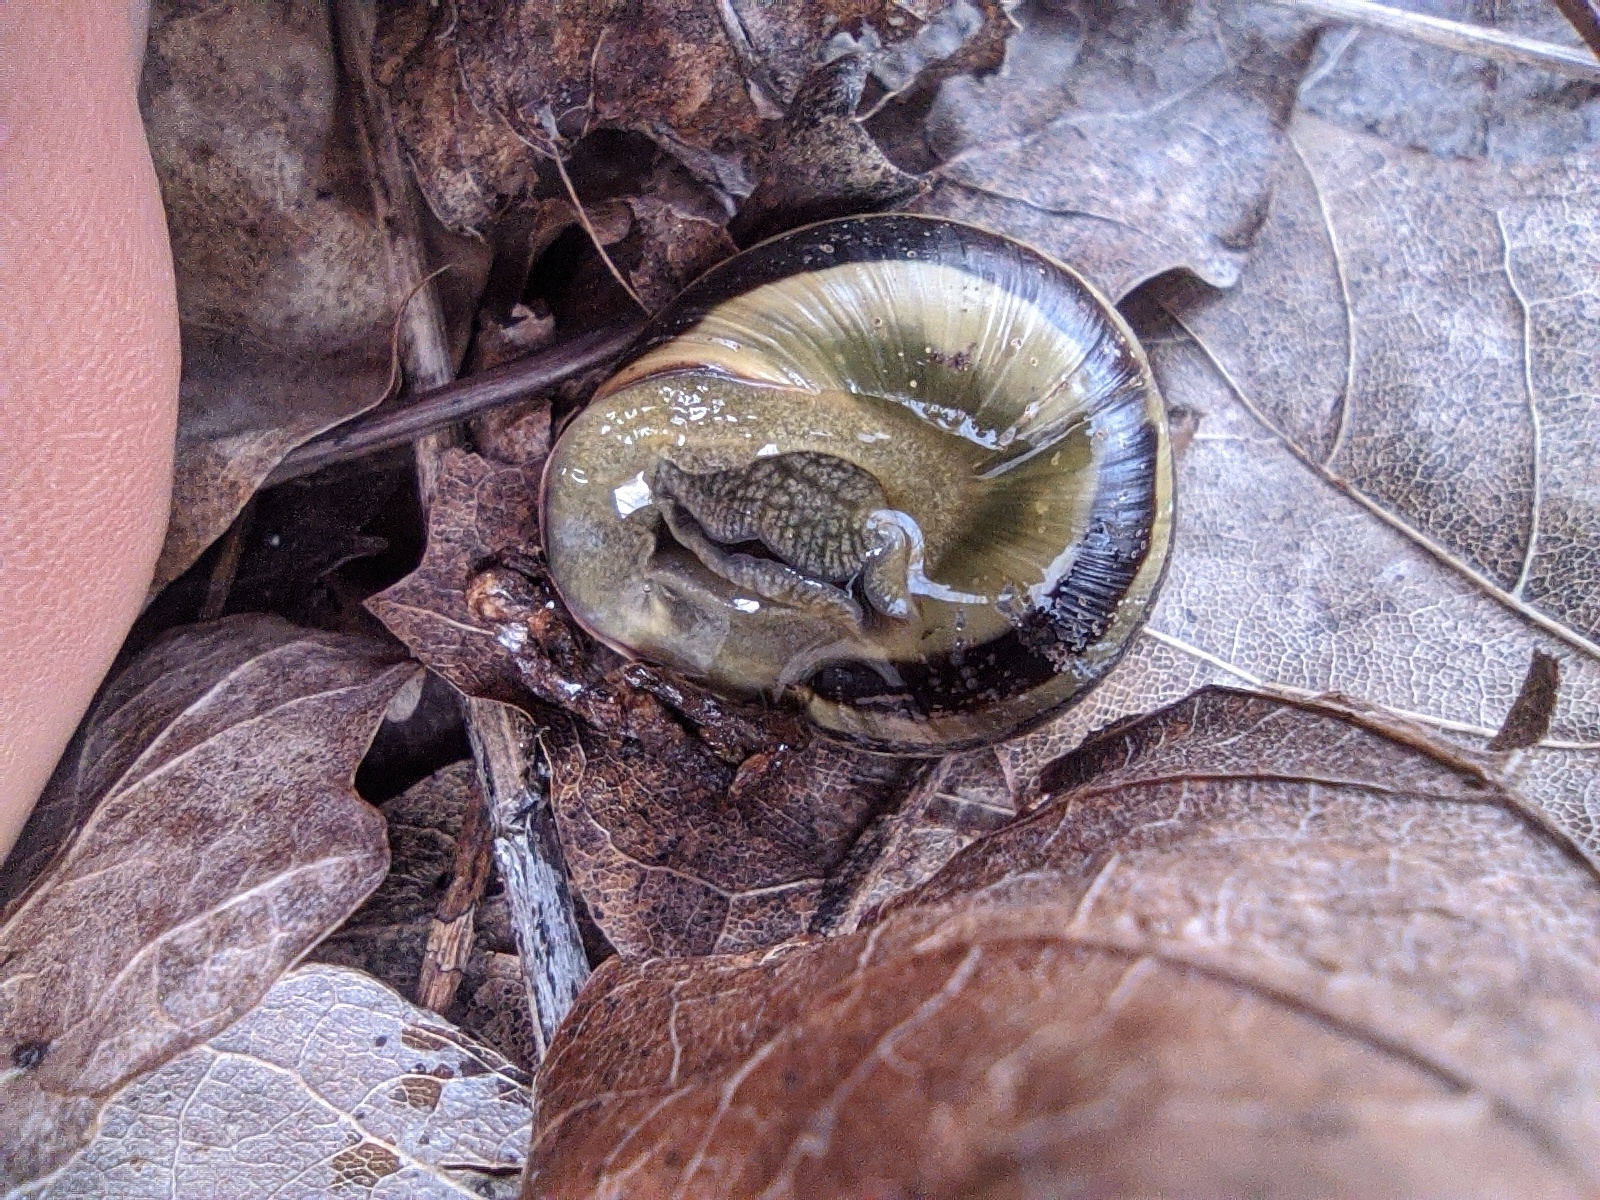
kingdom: Animalia
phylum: Mollusca
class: Gastropoda
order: Stylommatophora
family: Helicidae
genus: Cepaea
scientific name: Cepaea nemoralis
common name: Grovesnail
